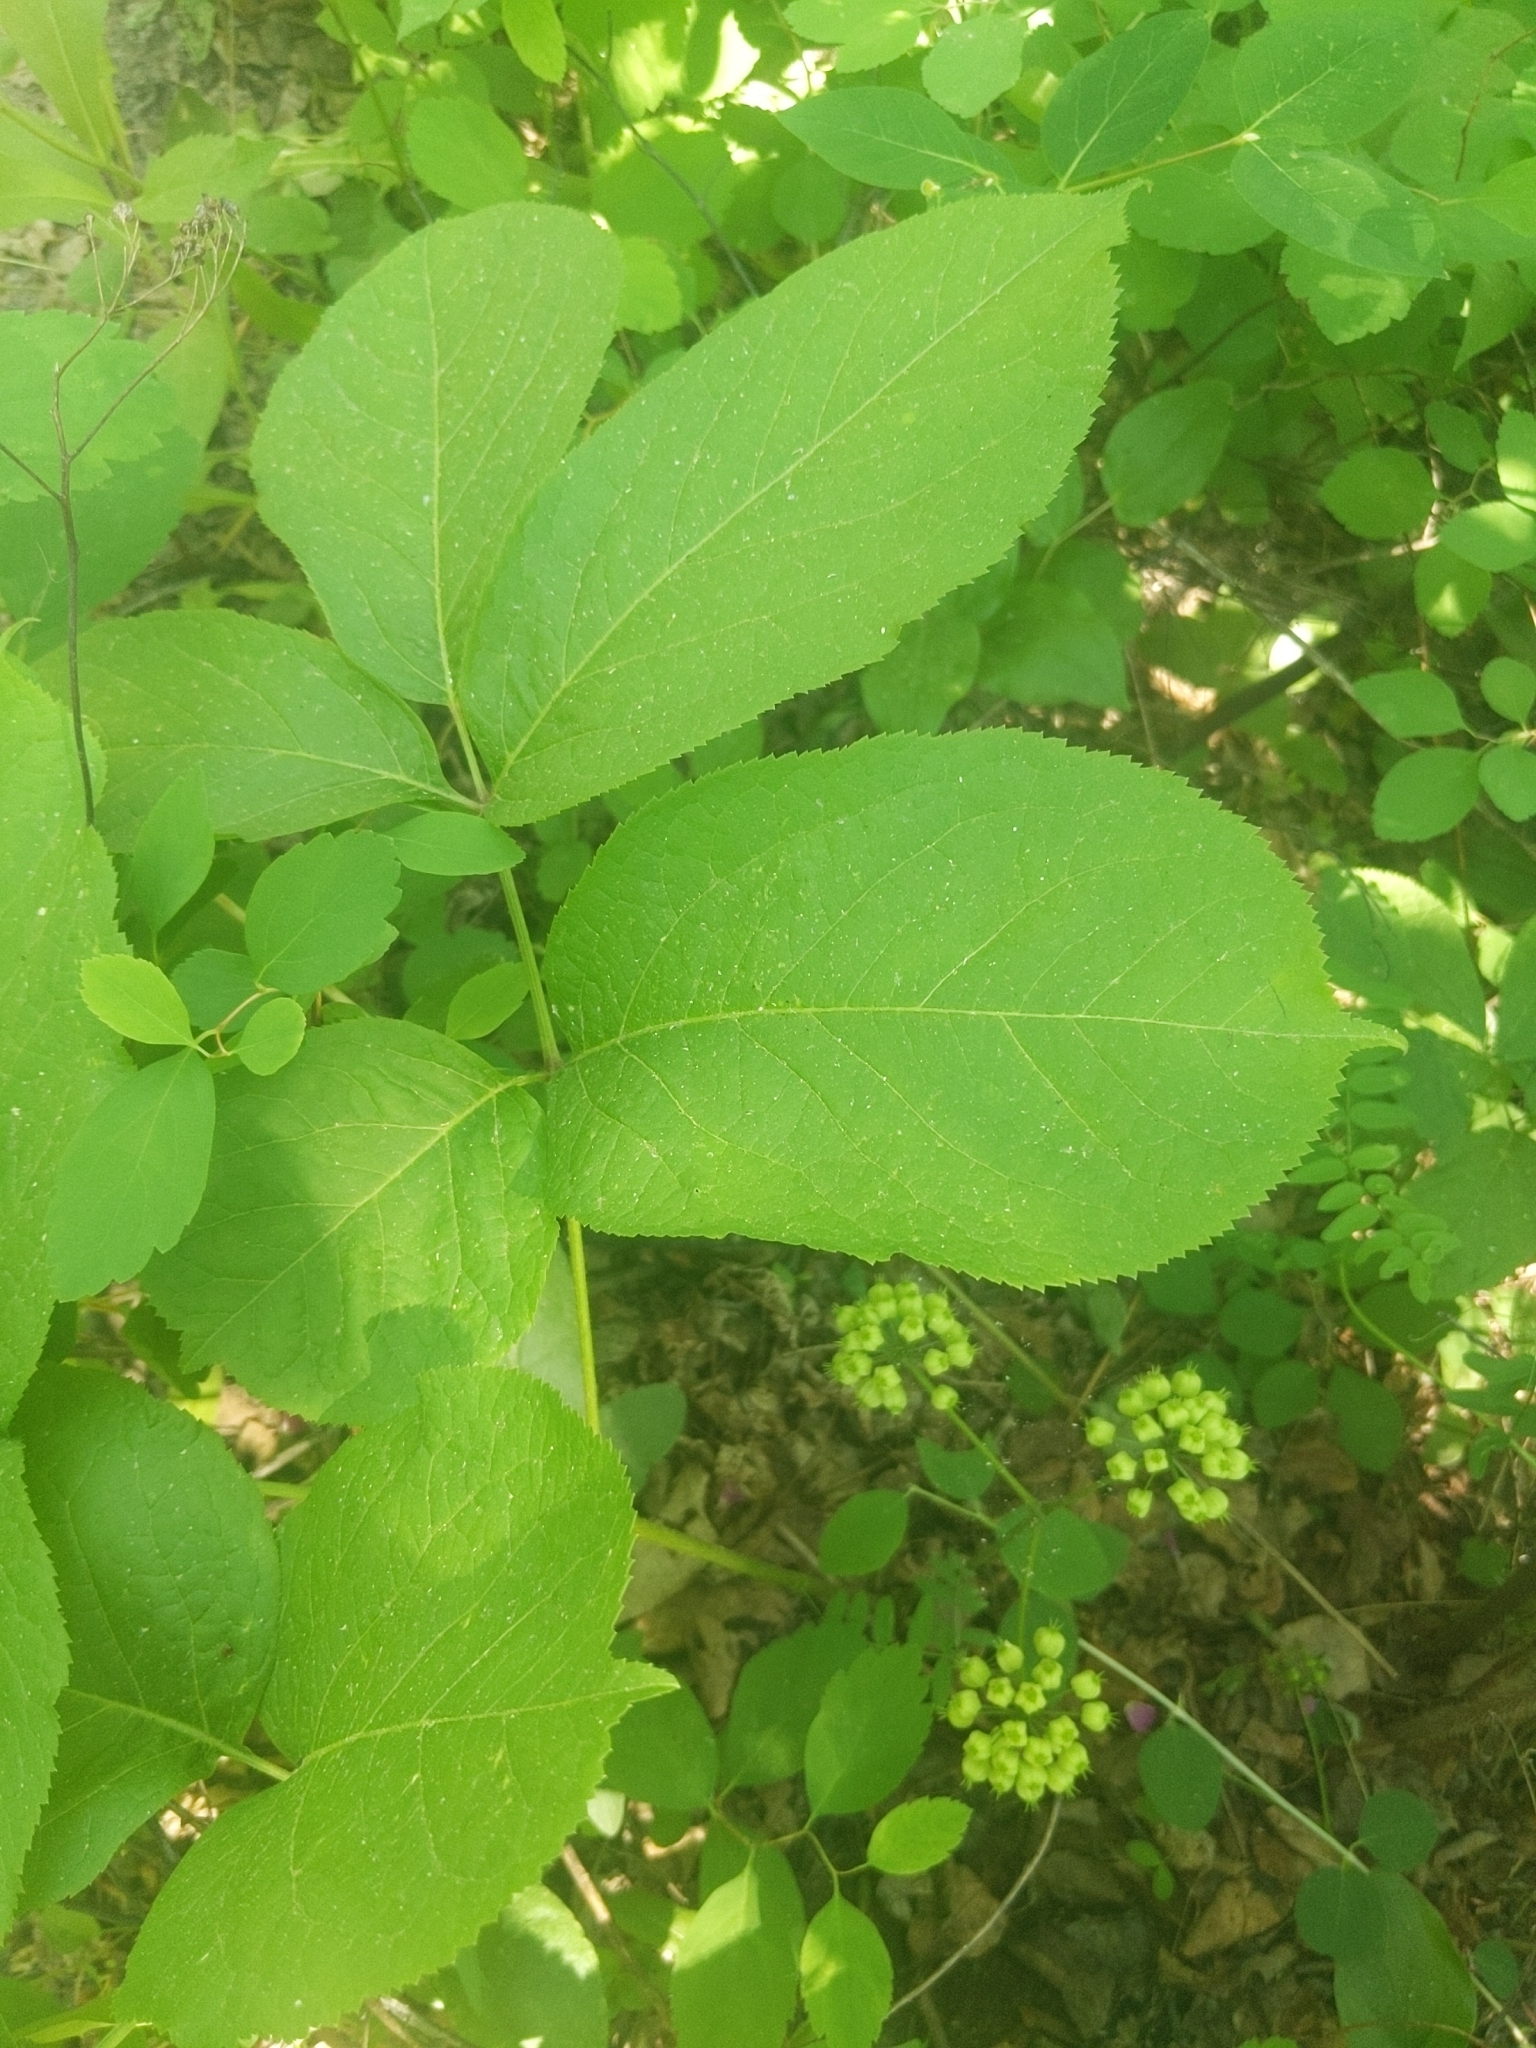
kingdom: Plantae
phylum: Tracheophyta
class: Magnoliopsida
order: Apiales
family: Araliaceae
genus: Aralia
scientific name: Aralia nudicaulis
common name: Wild sarsaparilla
